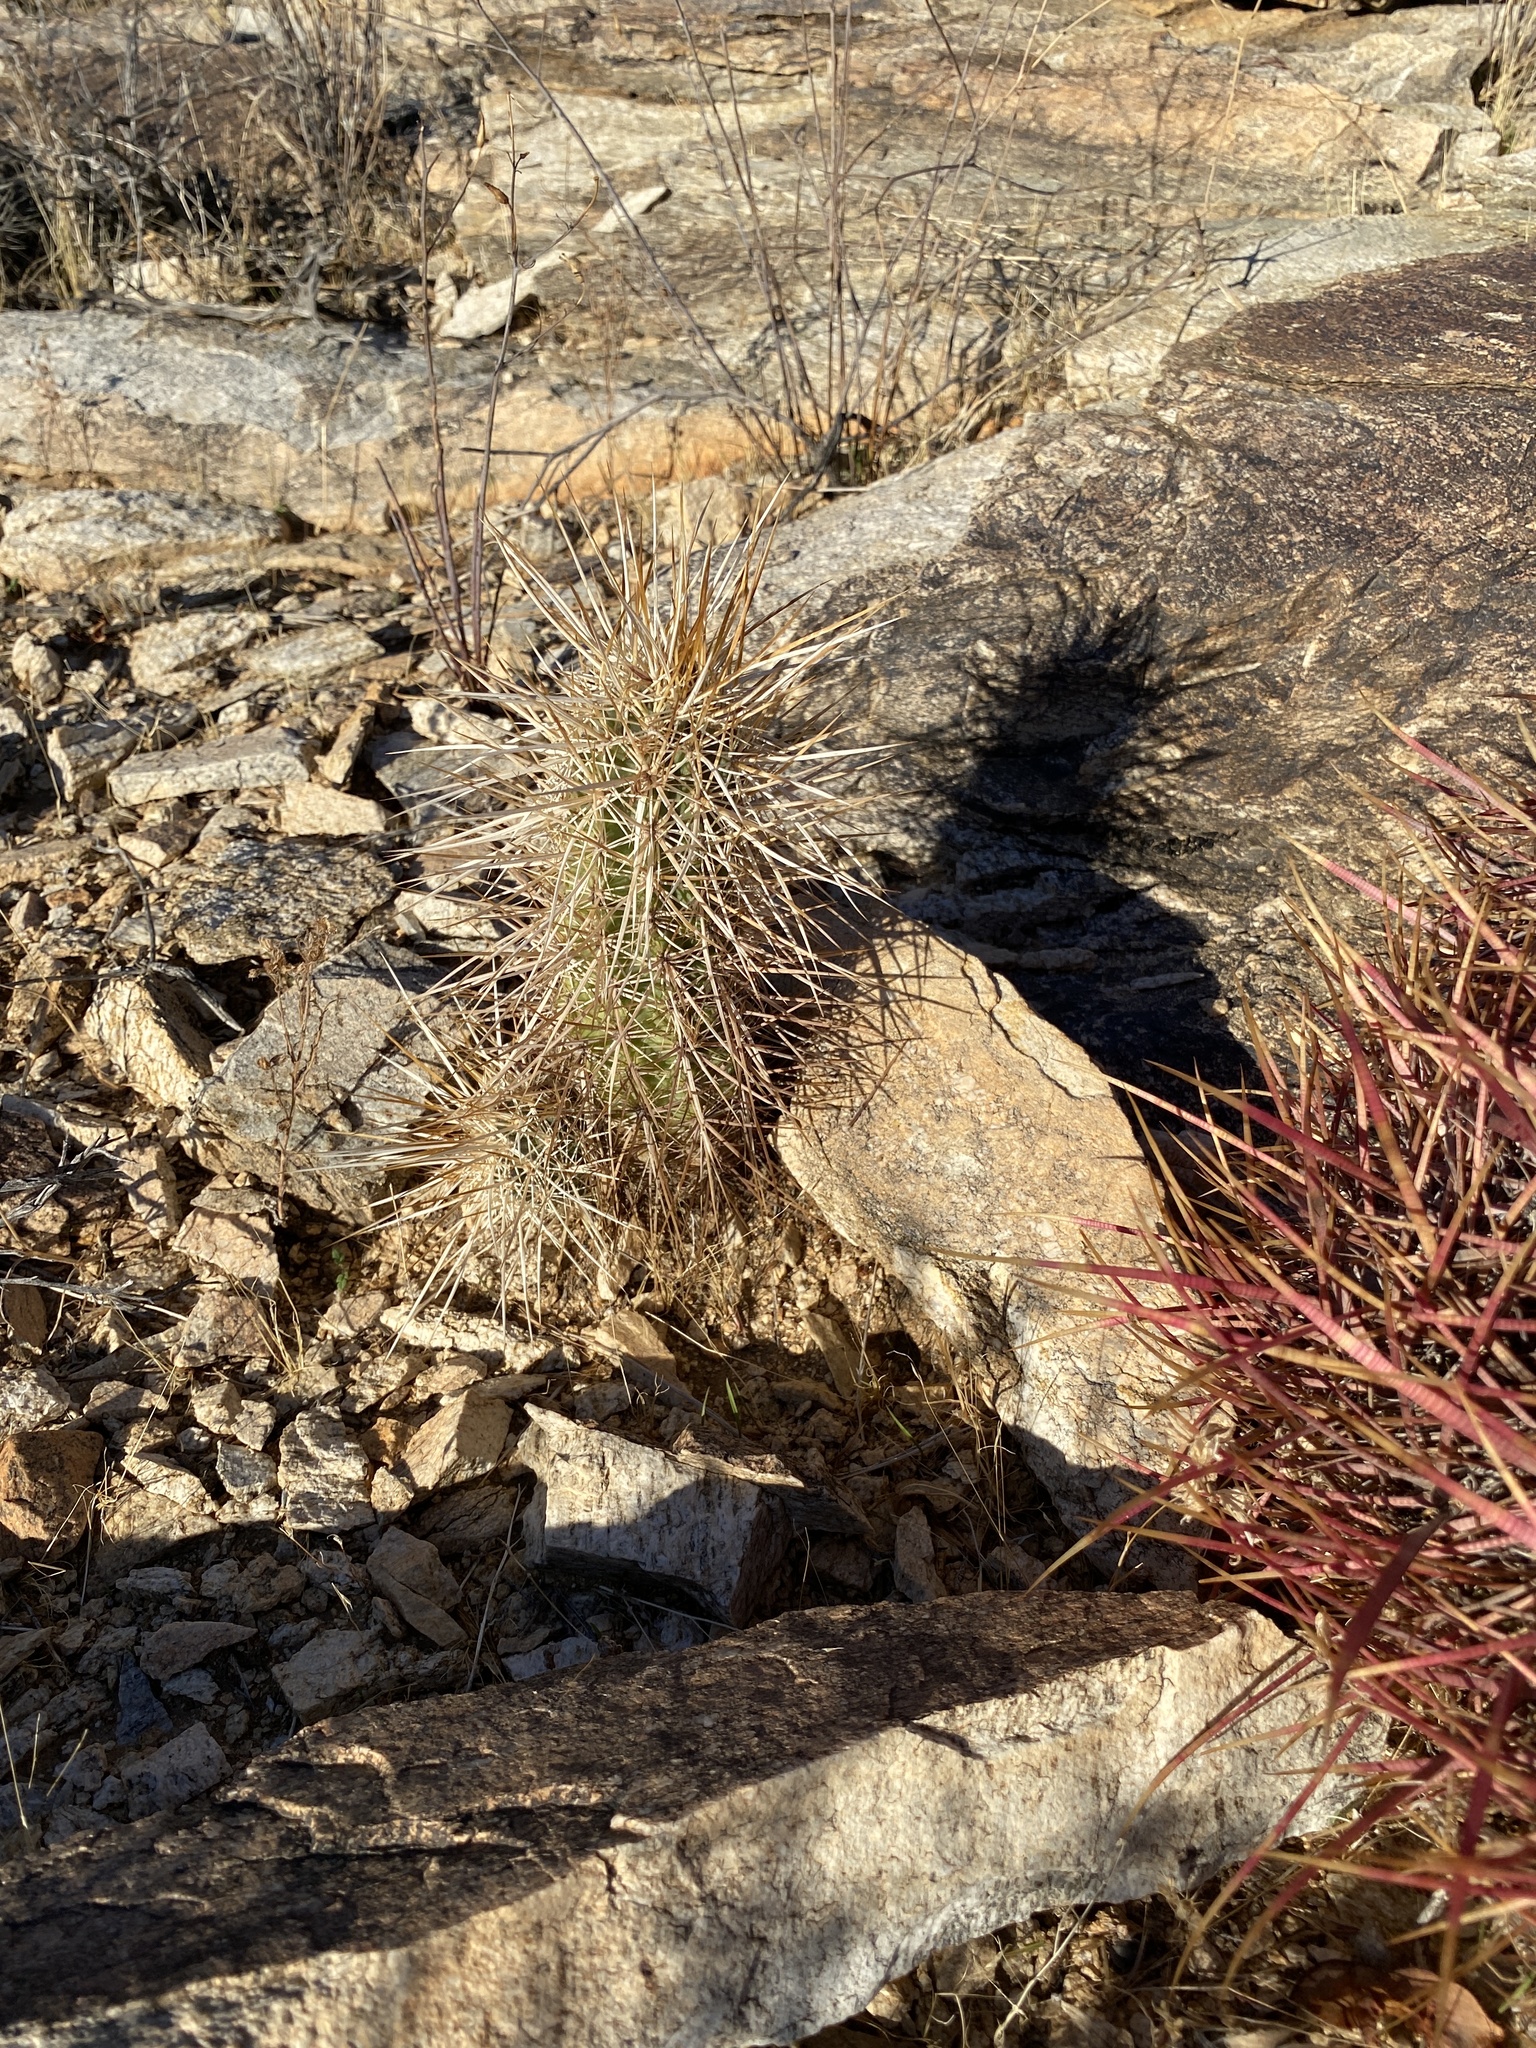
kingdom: Plantae
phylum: Tracheophyta
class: Magnoliopsida
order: Caryophyllales
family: Cactaceae
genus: Echinocereus
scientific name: Echinocereus engelmannii
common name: Engelmann's hedgehog cactus
